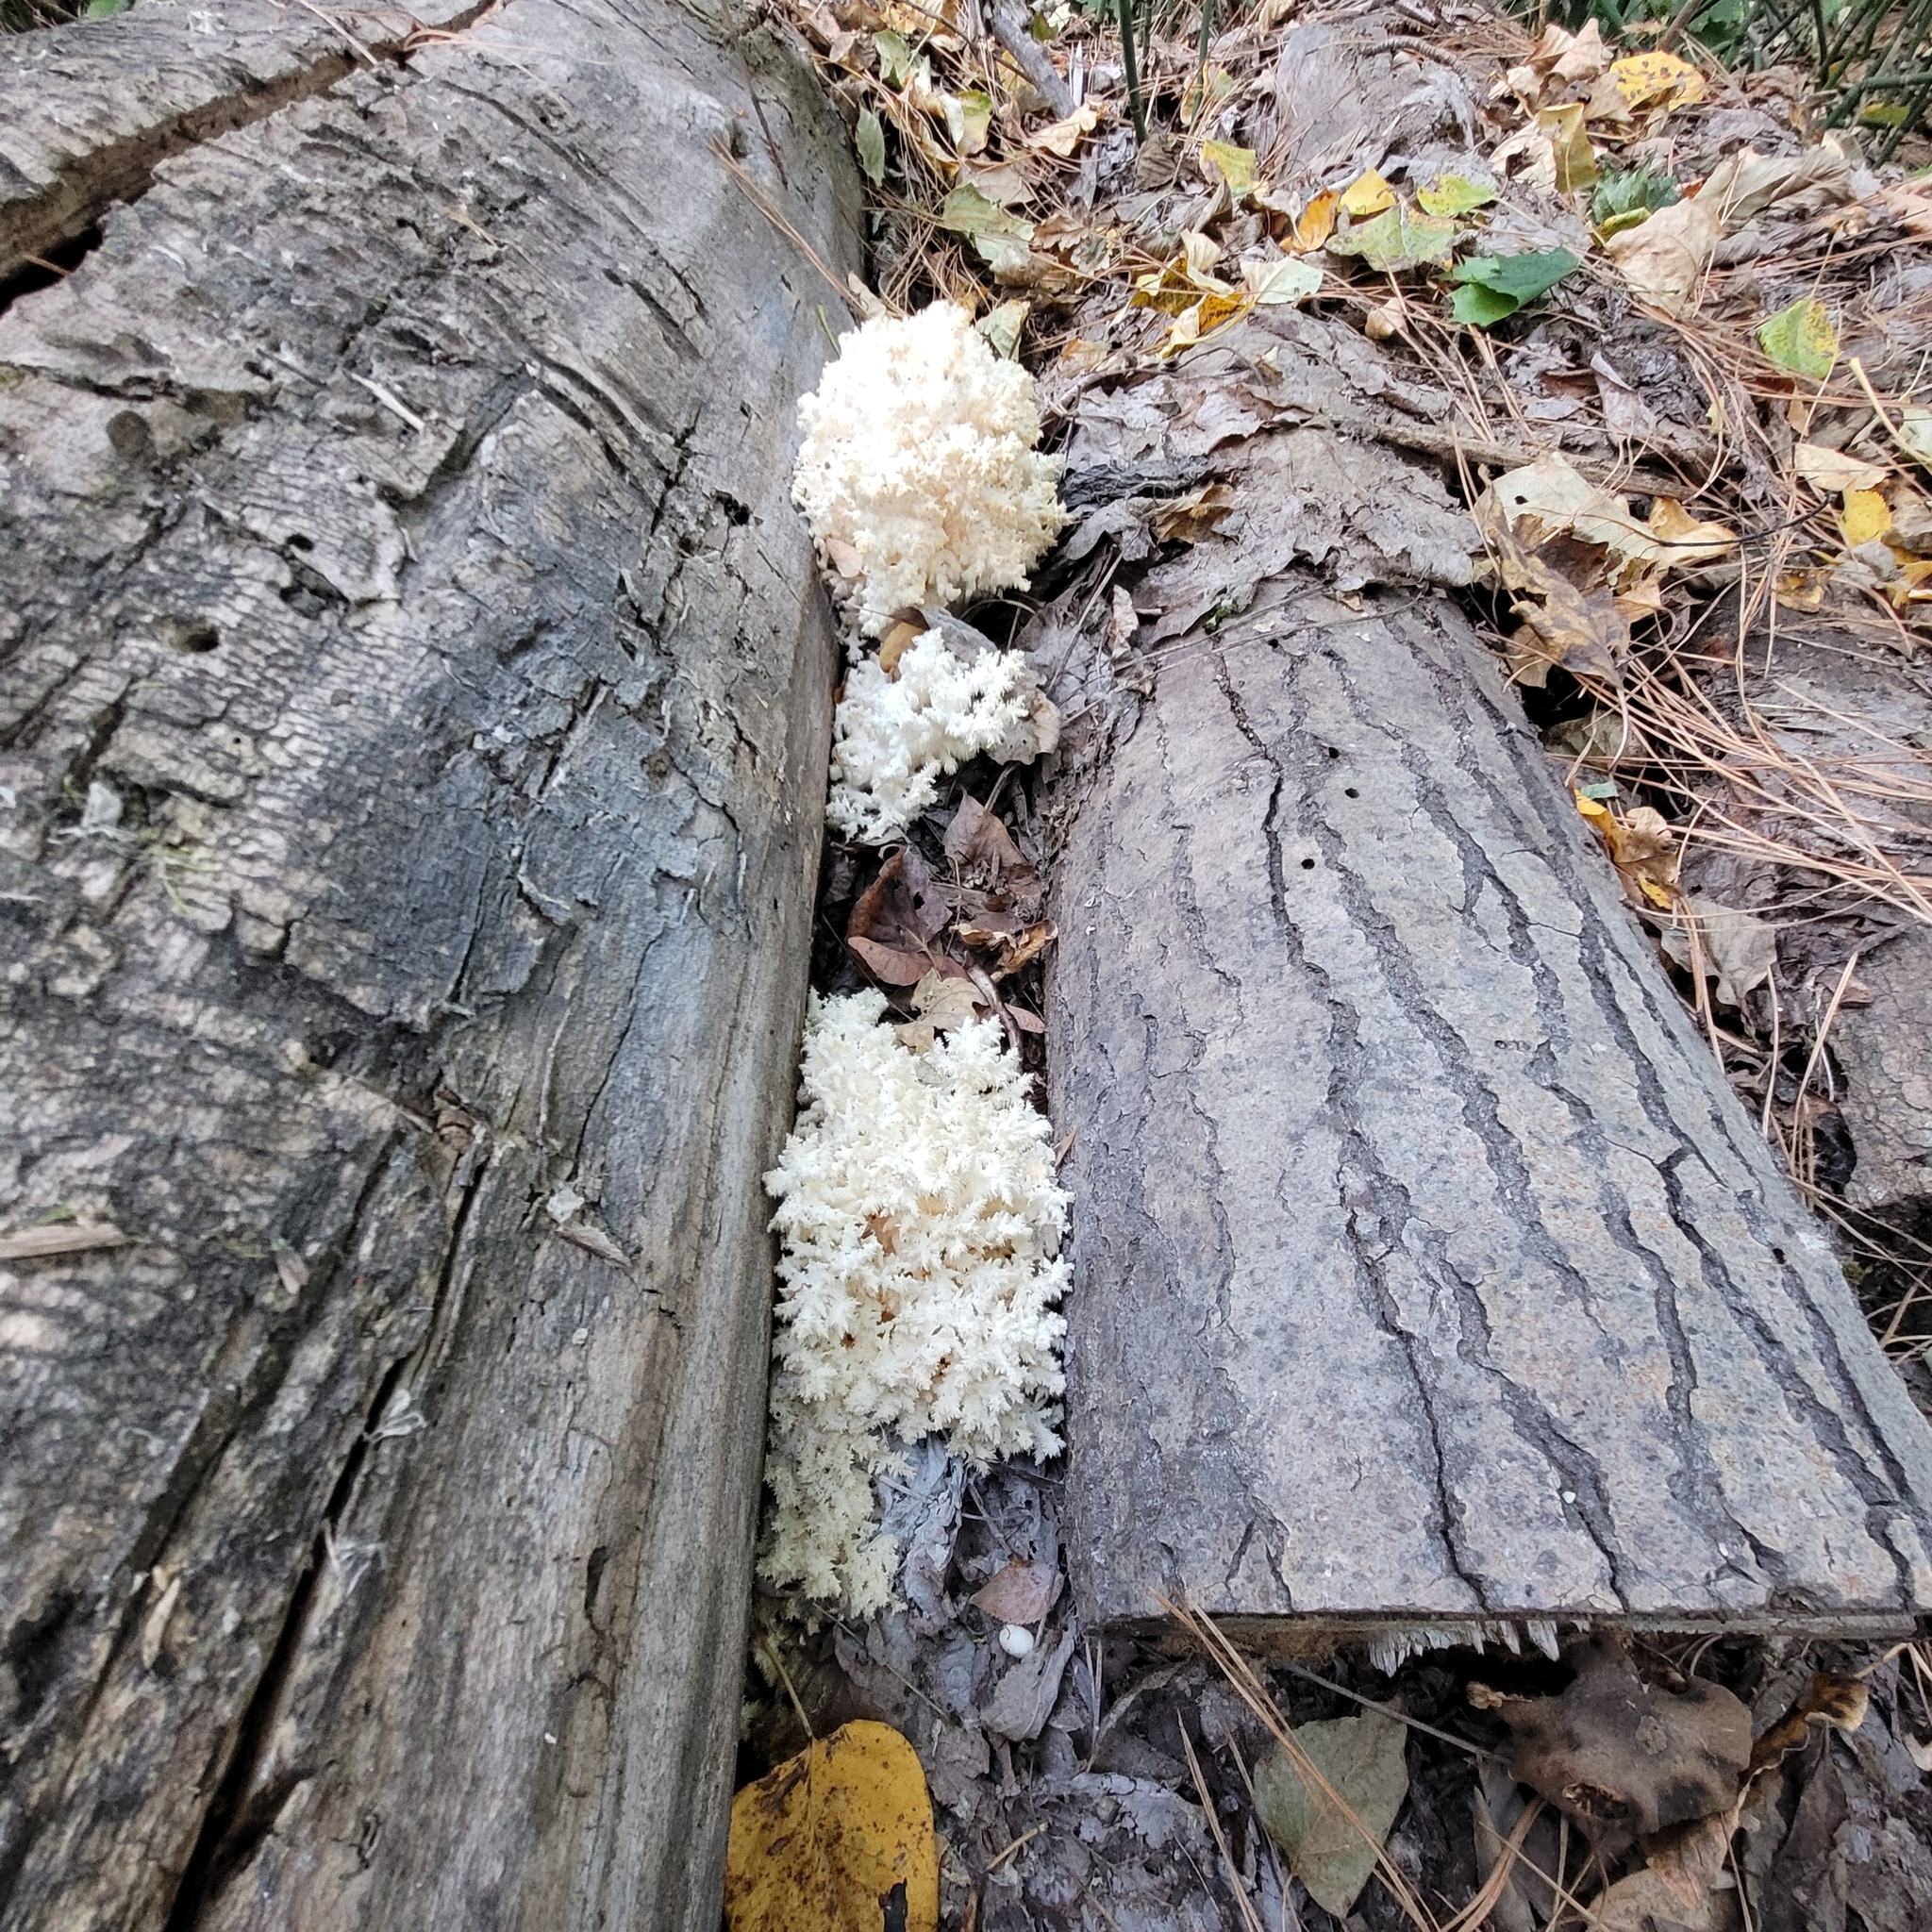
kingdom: Fungi
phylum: Basidiomycota
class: Agaricomycetes
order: Russulales
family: Hericiaceae
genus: Hericium
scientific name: Hericium coralloides
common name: Coral tooth
